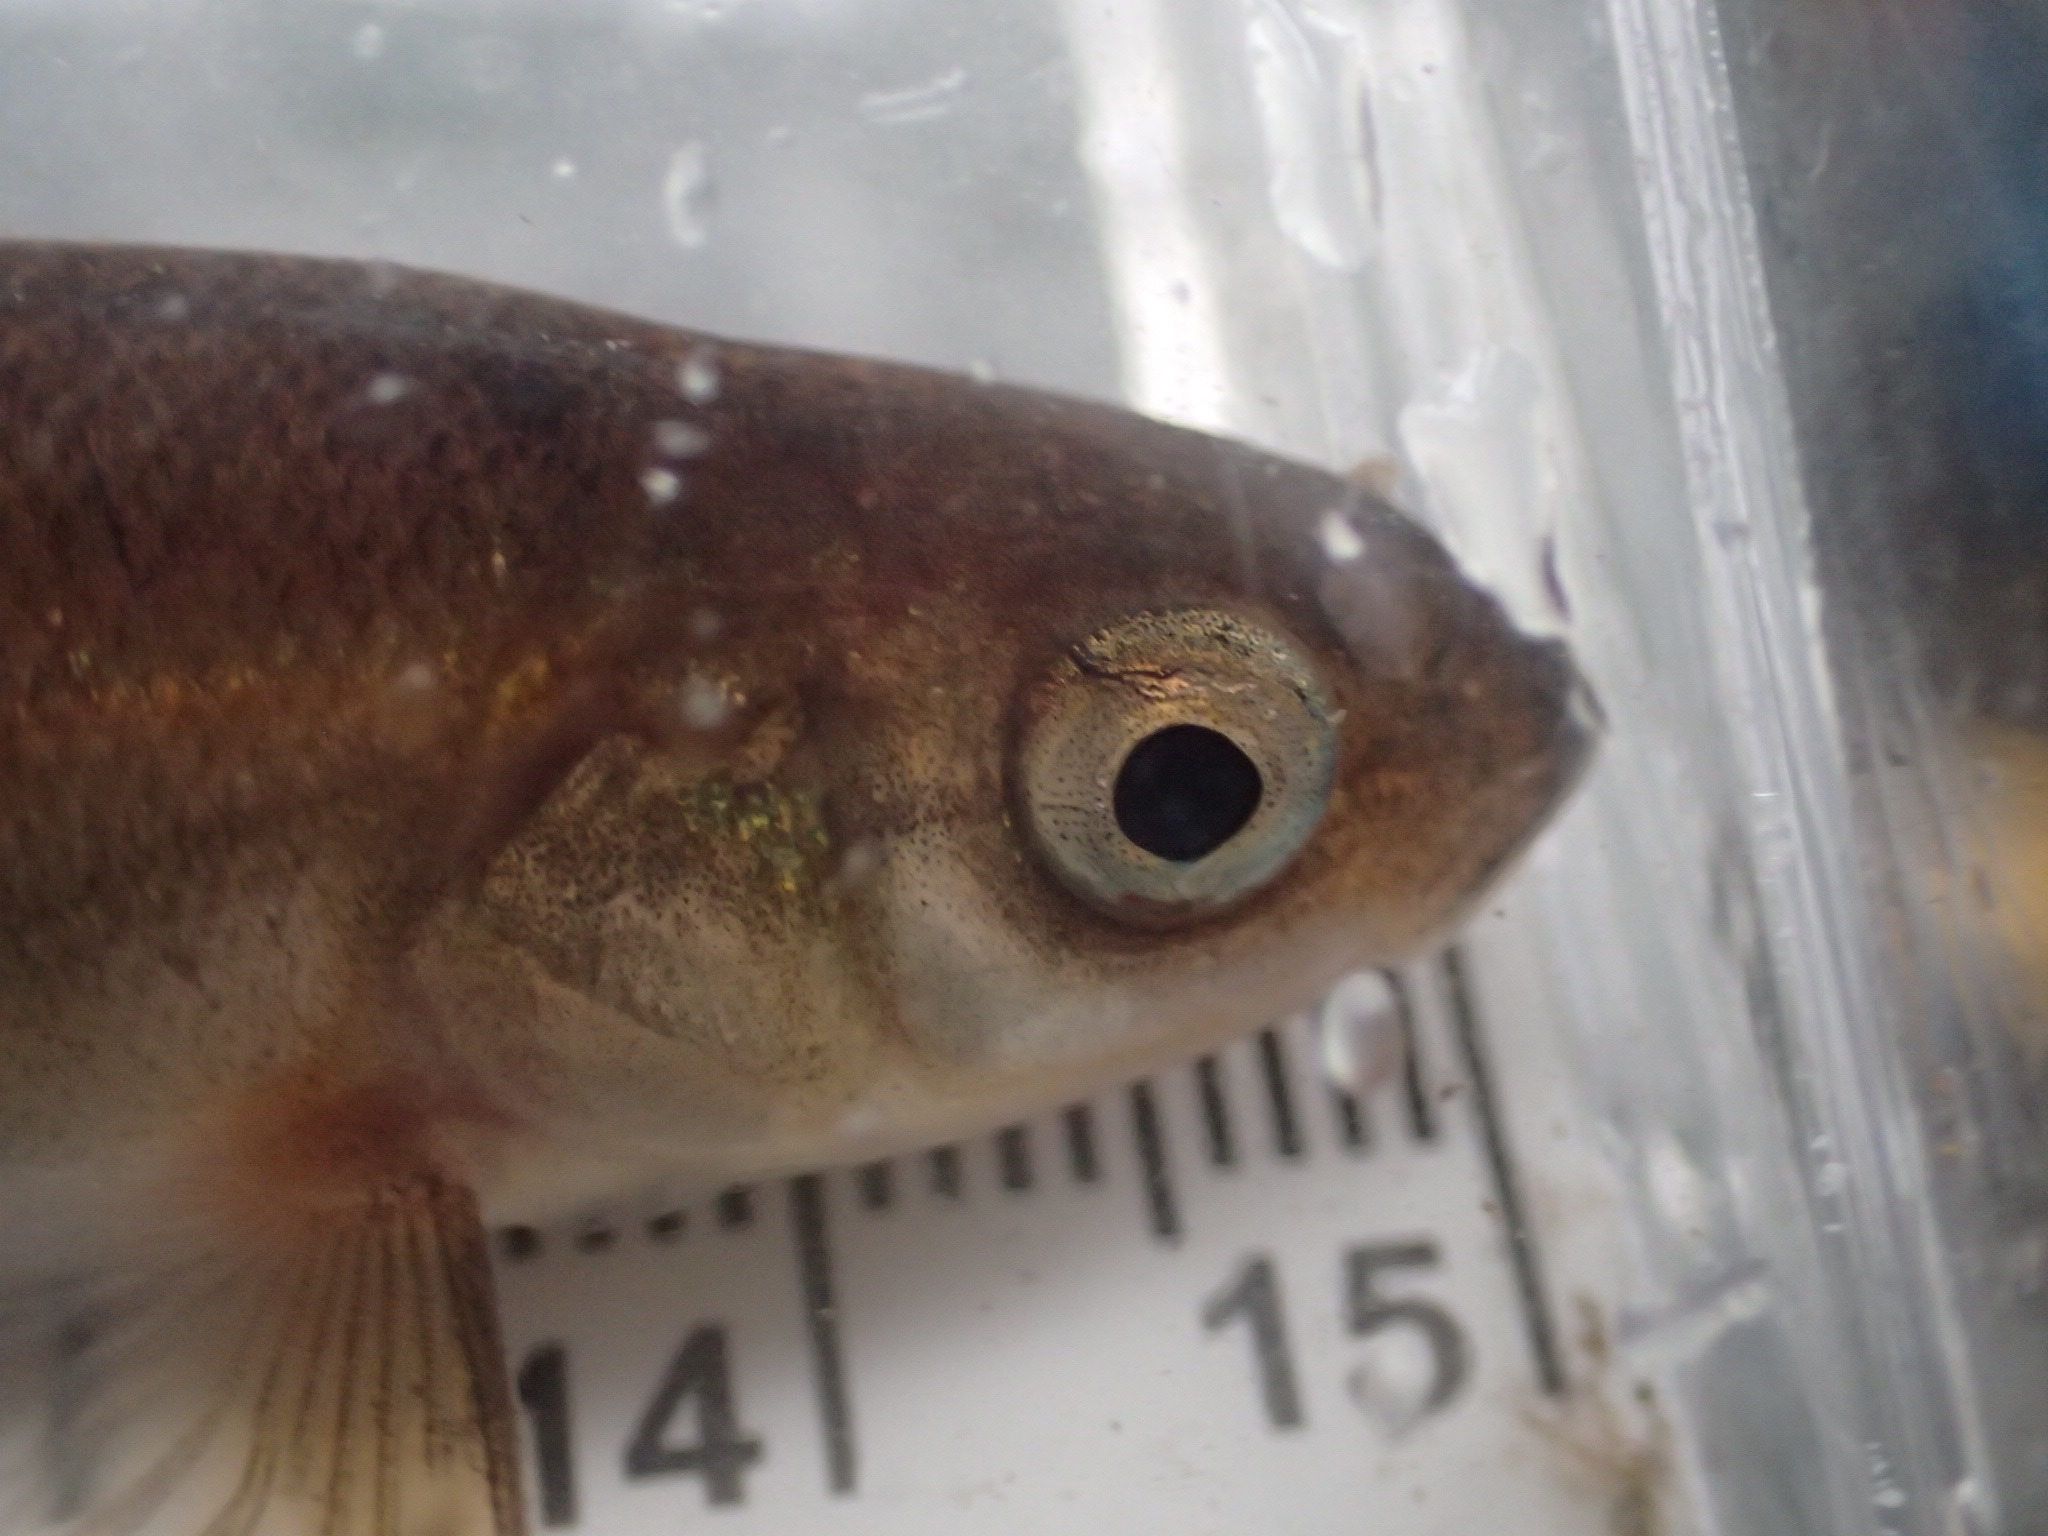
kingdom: Animalia
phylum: Chordata
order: Cypriniformes
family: Cyprinidae
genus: Margariscus
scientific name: Margariscus nachtriebi
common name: Northern pearl dace
